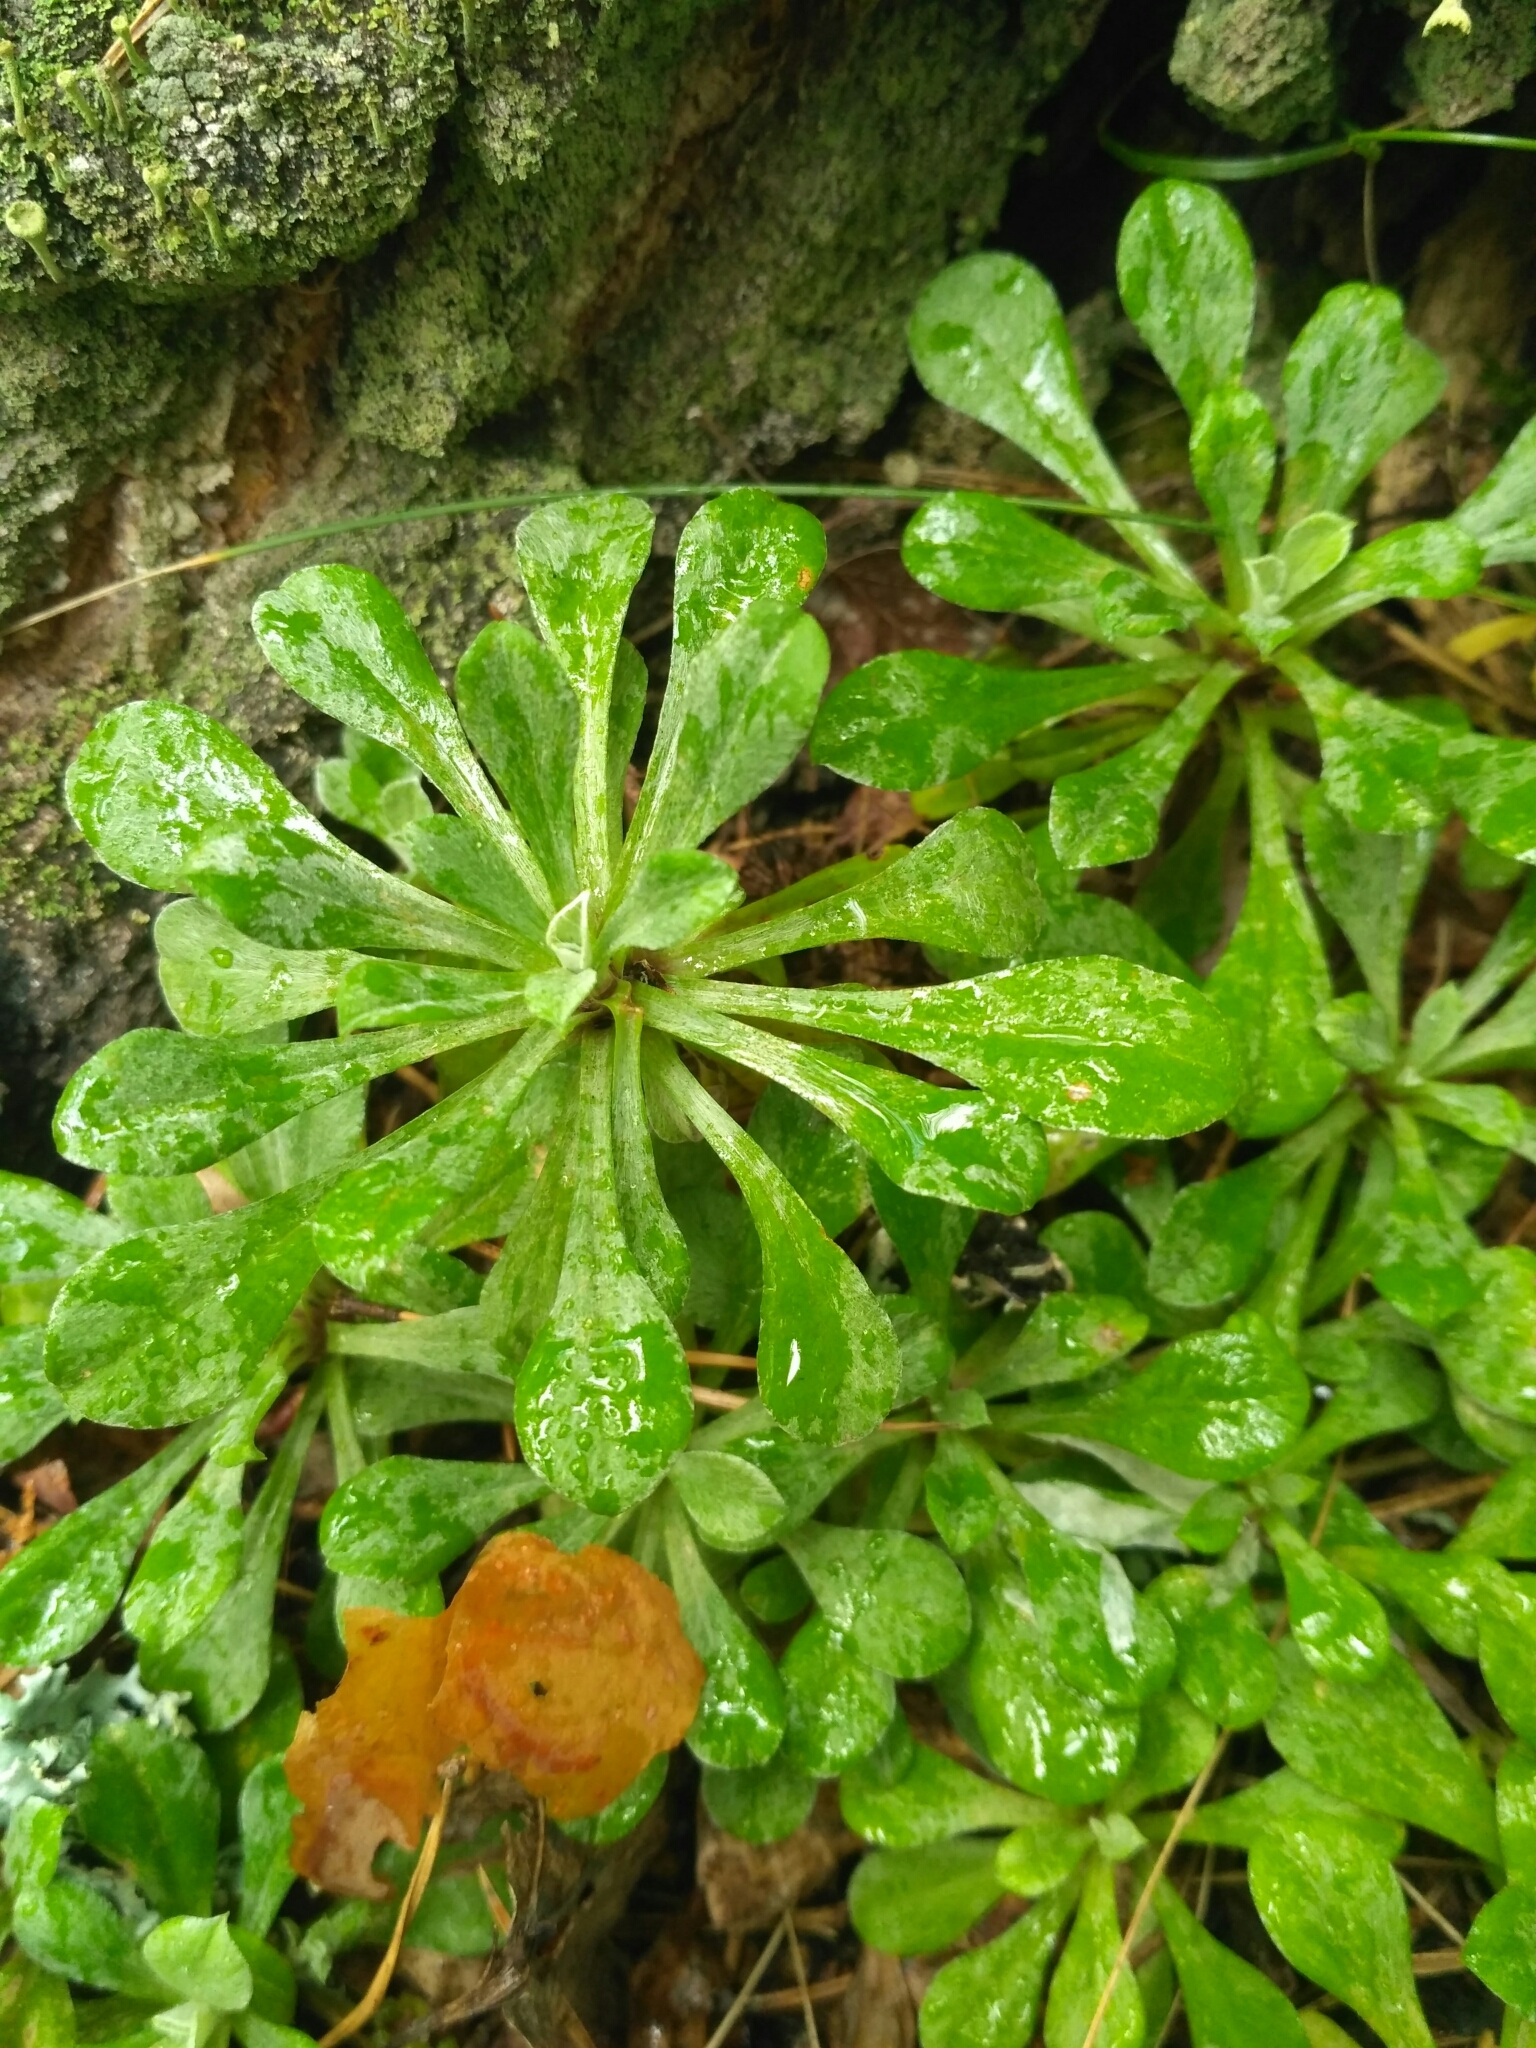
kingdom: Plantae
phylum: Tracheophyta
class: Magnoliopsida
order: Asterales
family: Asteraceae
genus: Antennaria
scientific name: Antennaria dioica
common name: Mountain everlasting
